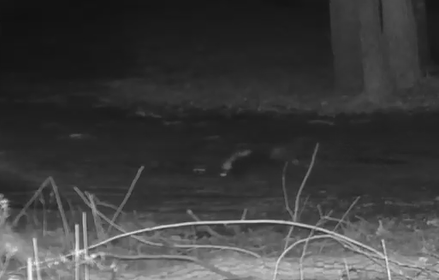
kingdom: Animalia
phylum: Chordata
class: Mammalia
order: Carnivora
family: Mephitidae
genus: Mephitis
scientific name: Mephitis mephitis
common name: Striped skunk
